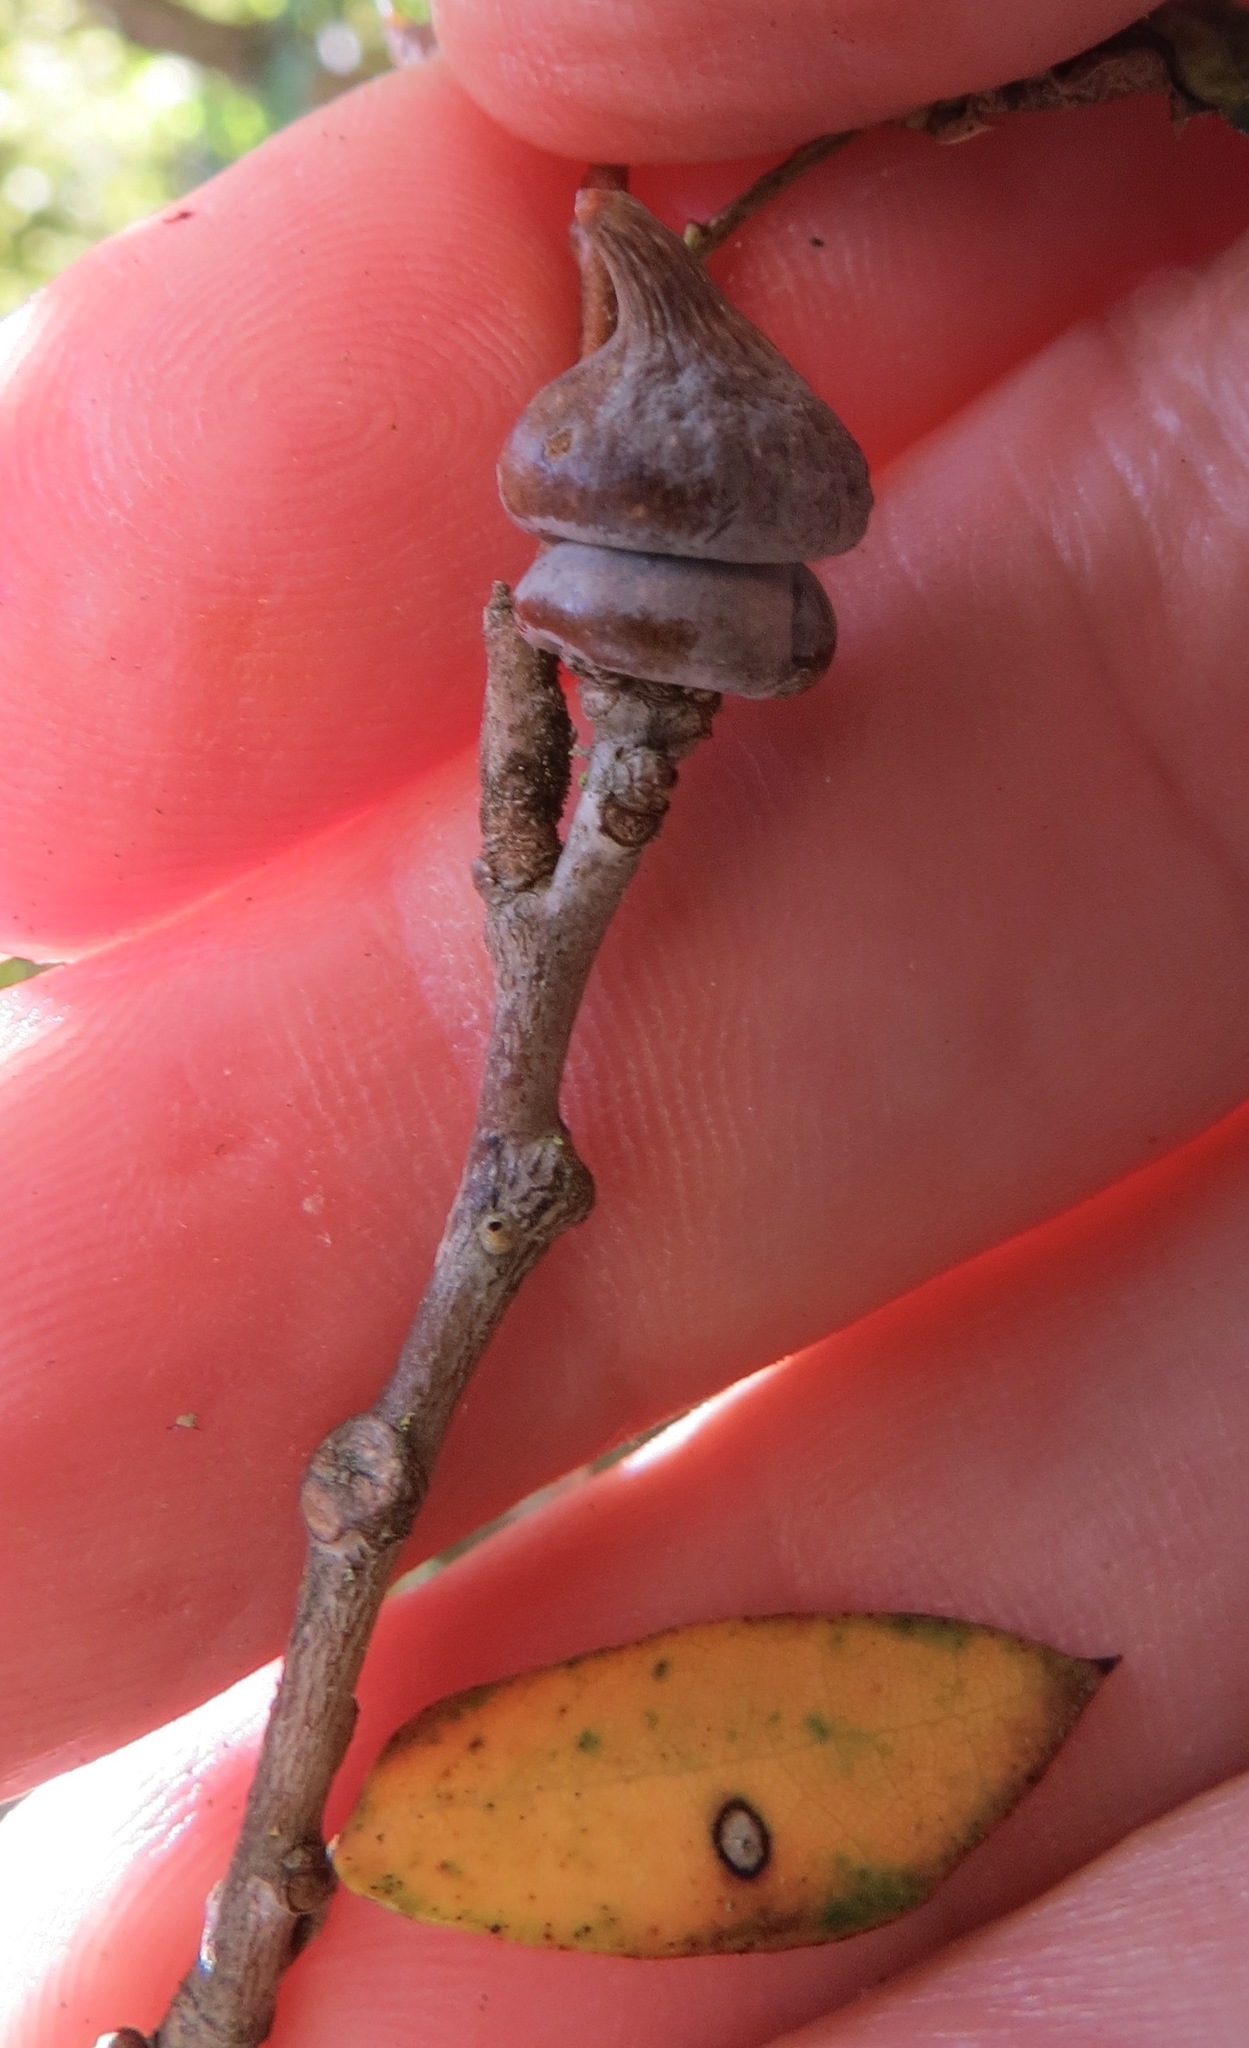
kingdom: Animalia
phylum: Arthropoda
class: Insecta
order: Hymenoptera
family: Cynipidae
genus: Heteroecus
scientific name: Heteroecus
